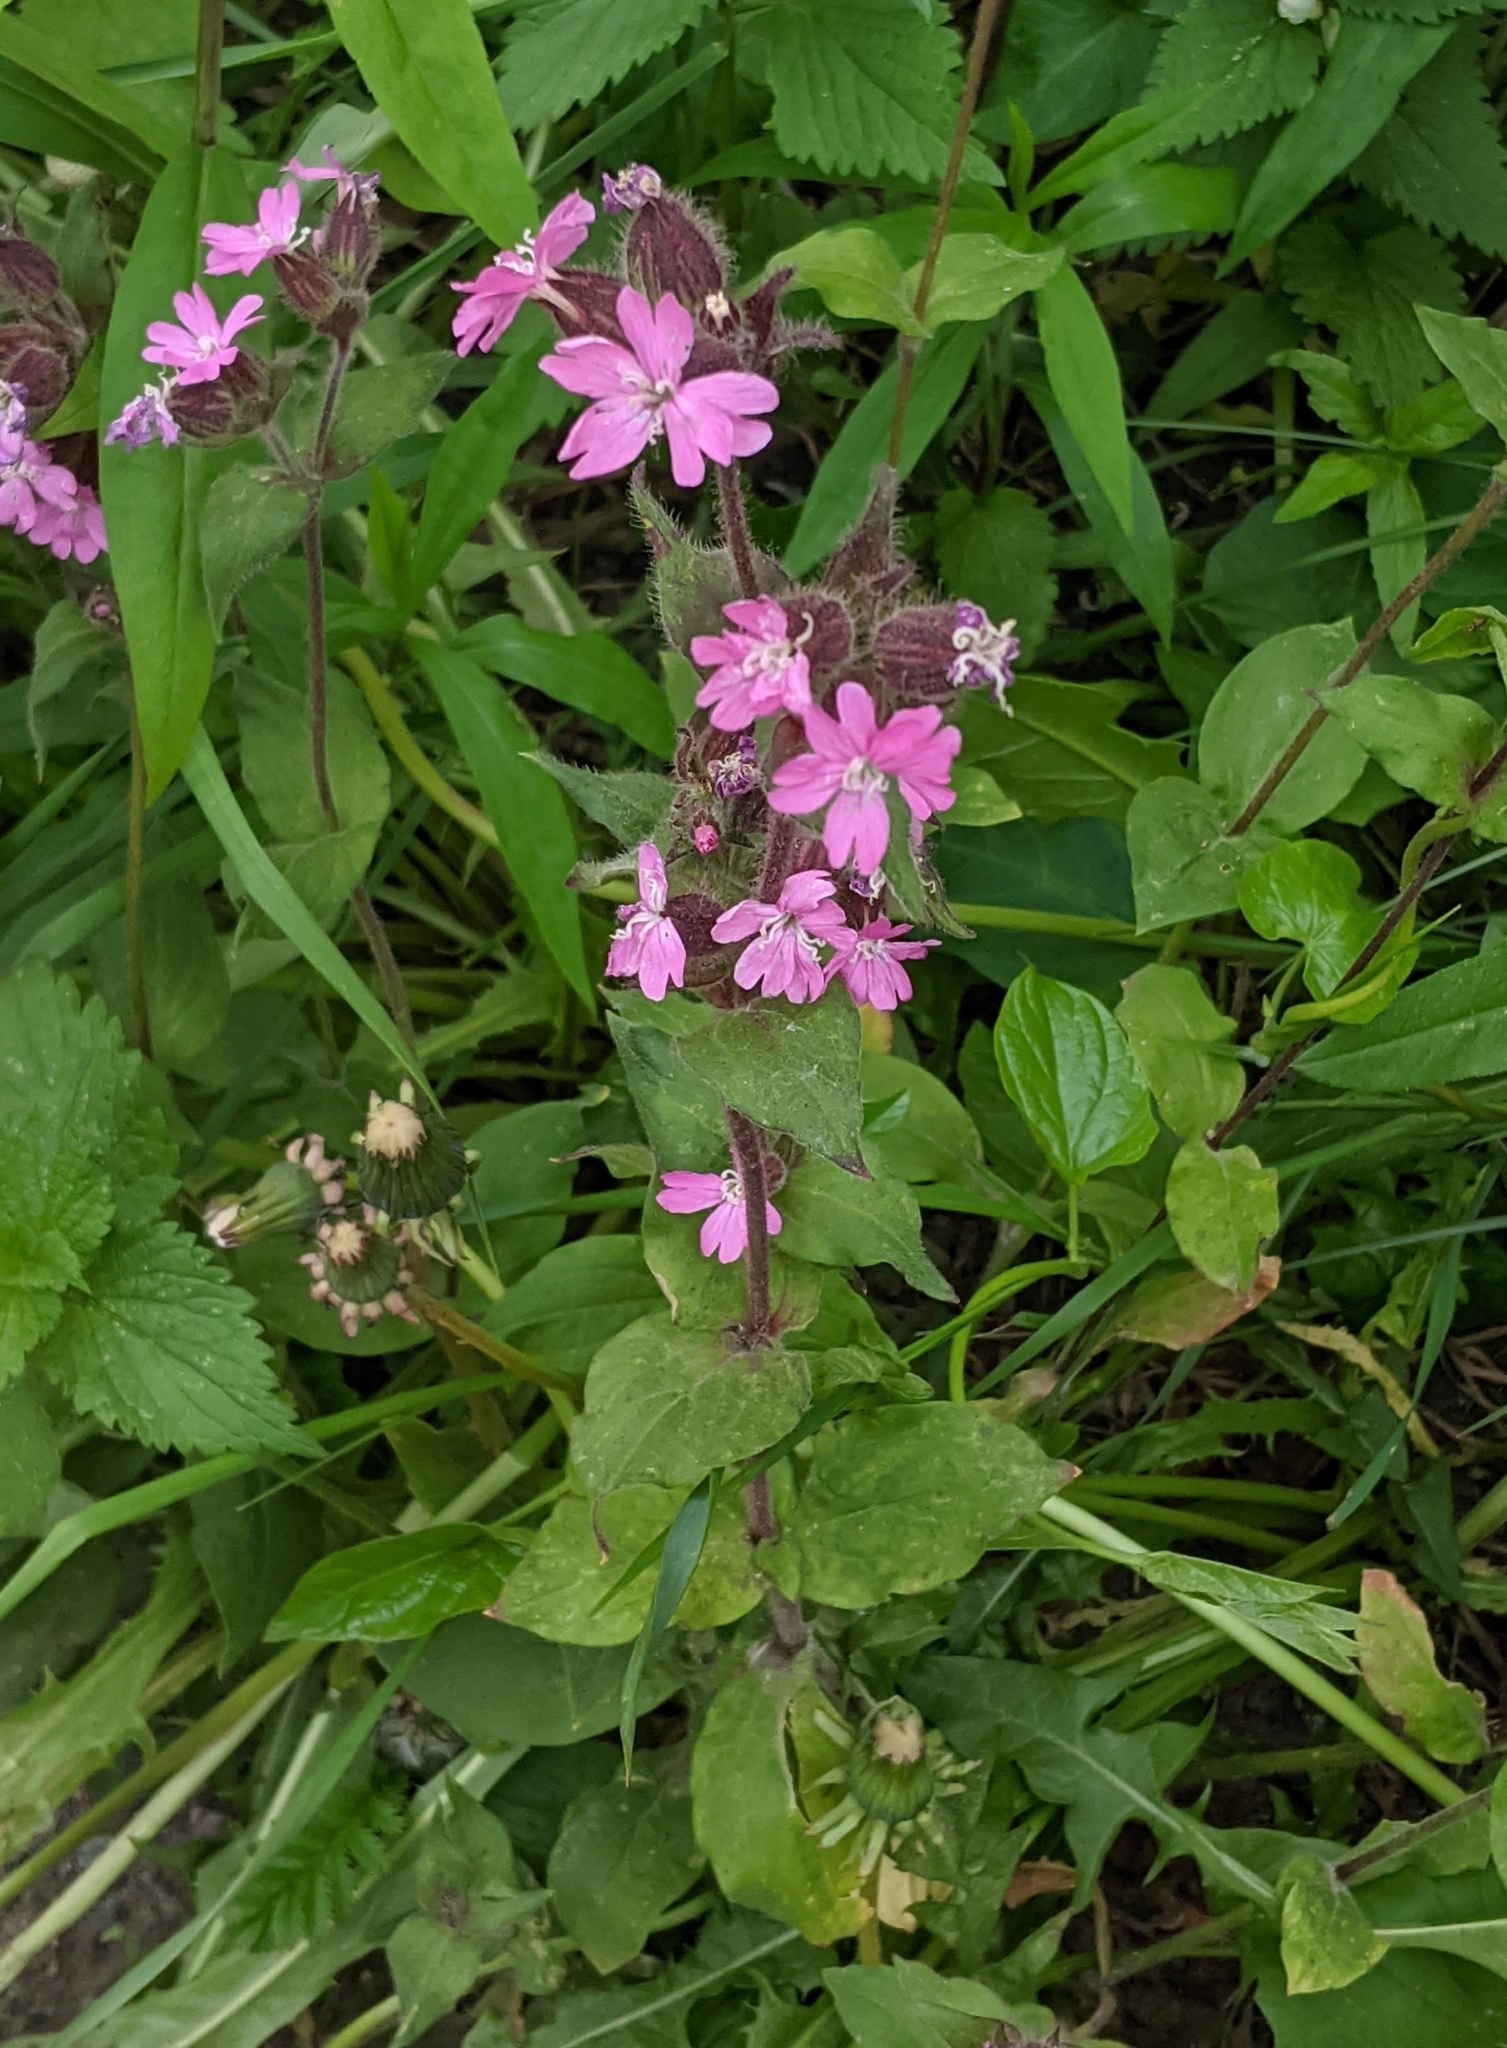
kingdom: Plantae
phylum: Tracheophyta
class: Magnoliopsida
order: Caryophyllales
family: Caryophyllaceae
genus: Silene
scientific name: Silene dioica
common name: Red campion
